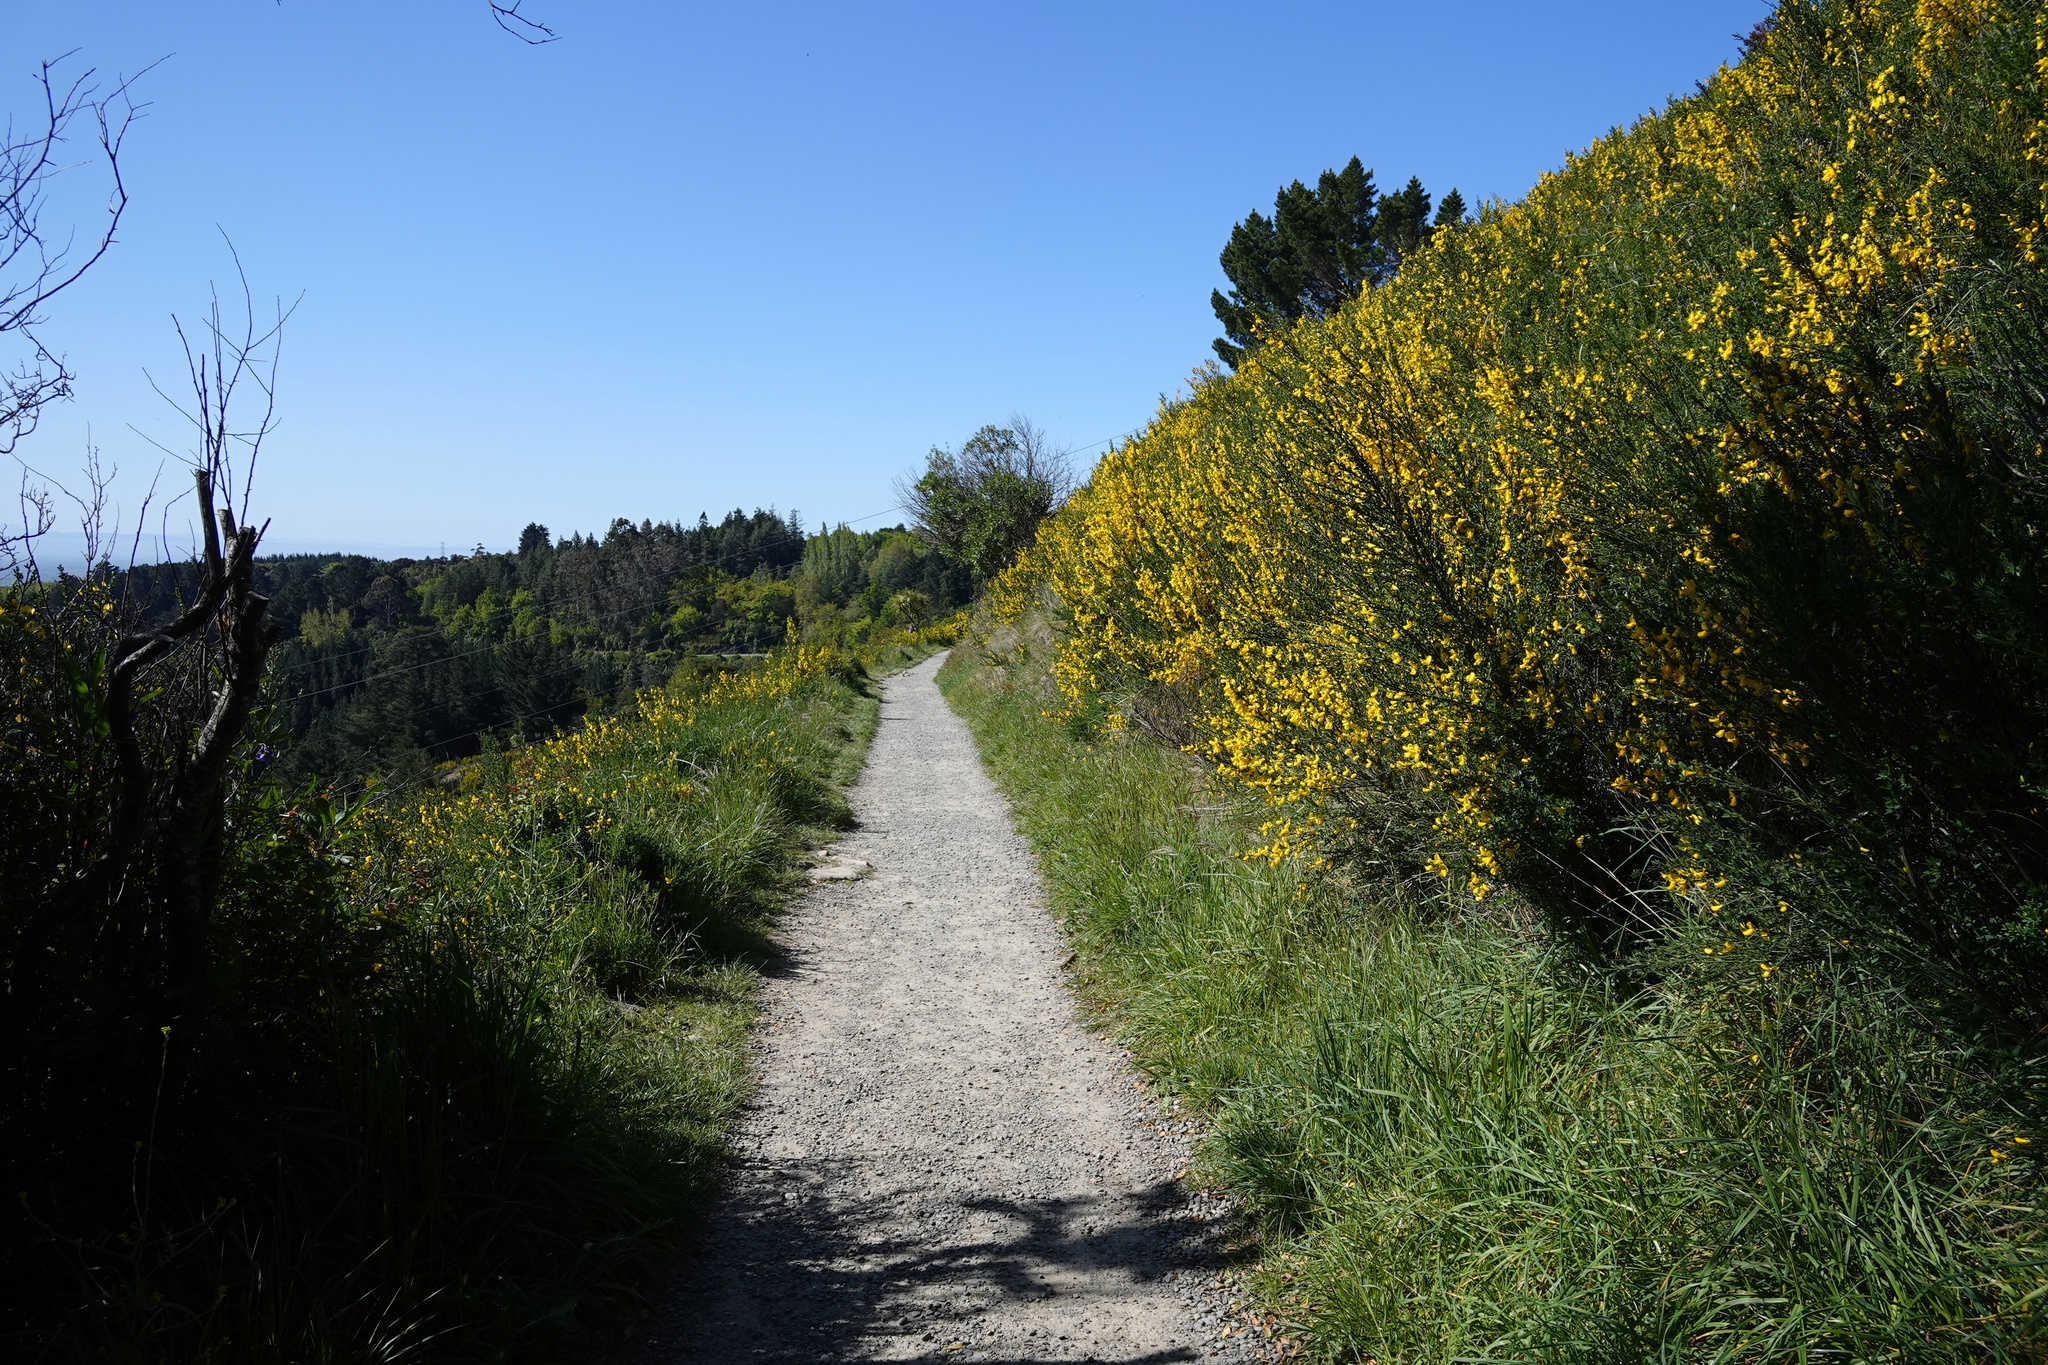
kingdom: Plantae
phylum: Tracheophyta
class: Magnoliopsida
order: Fabales
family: Fabaceae
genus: Cytisus
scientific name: Cytisus scoparius
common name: Scotch broom
